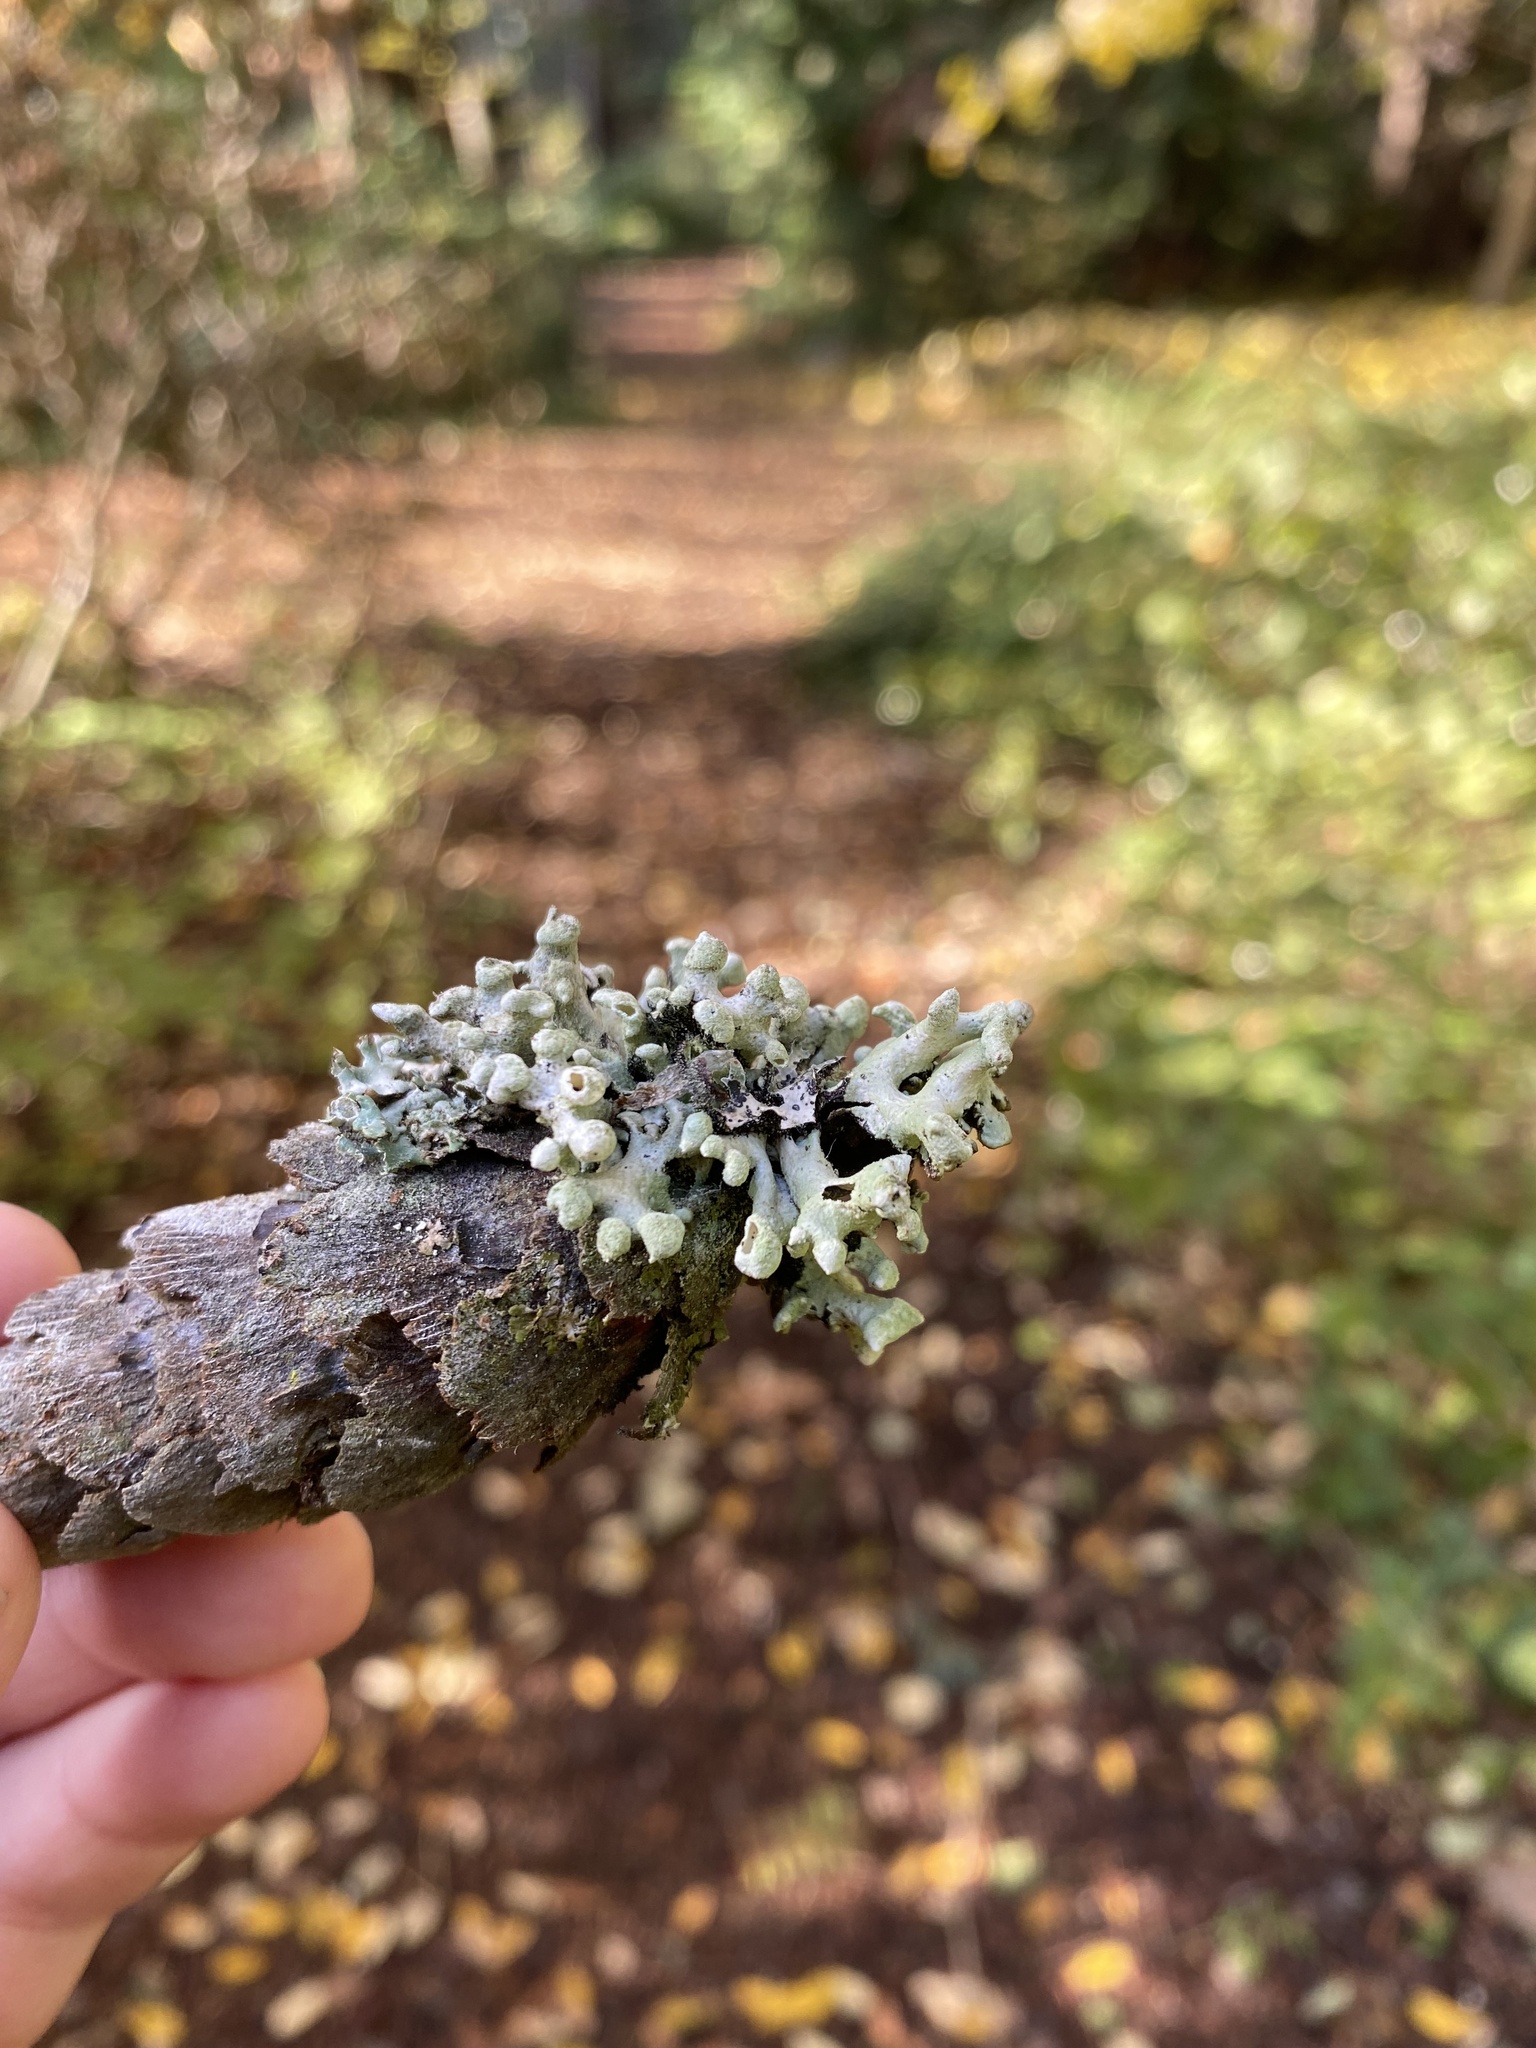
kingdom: Fungi
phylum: Ascomycota
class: Lecanoromycetes
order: Lecanorales
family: Parmeliaceae
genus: Hypogymnia
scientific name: Hypogymnia tubulosa
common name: Powder-headed tube lichen
